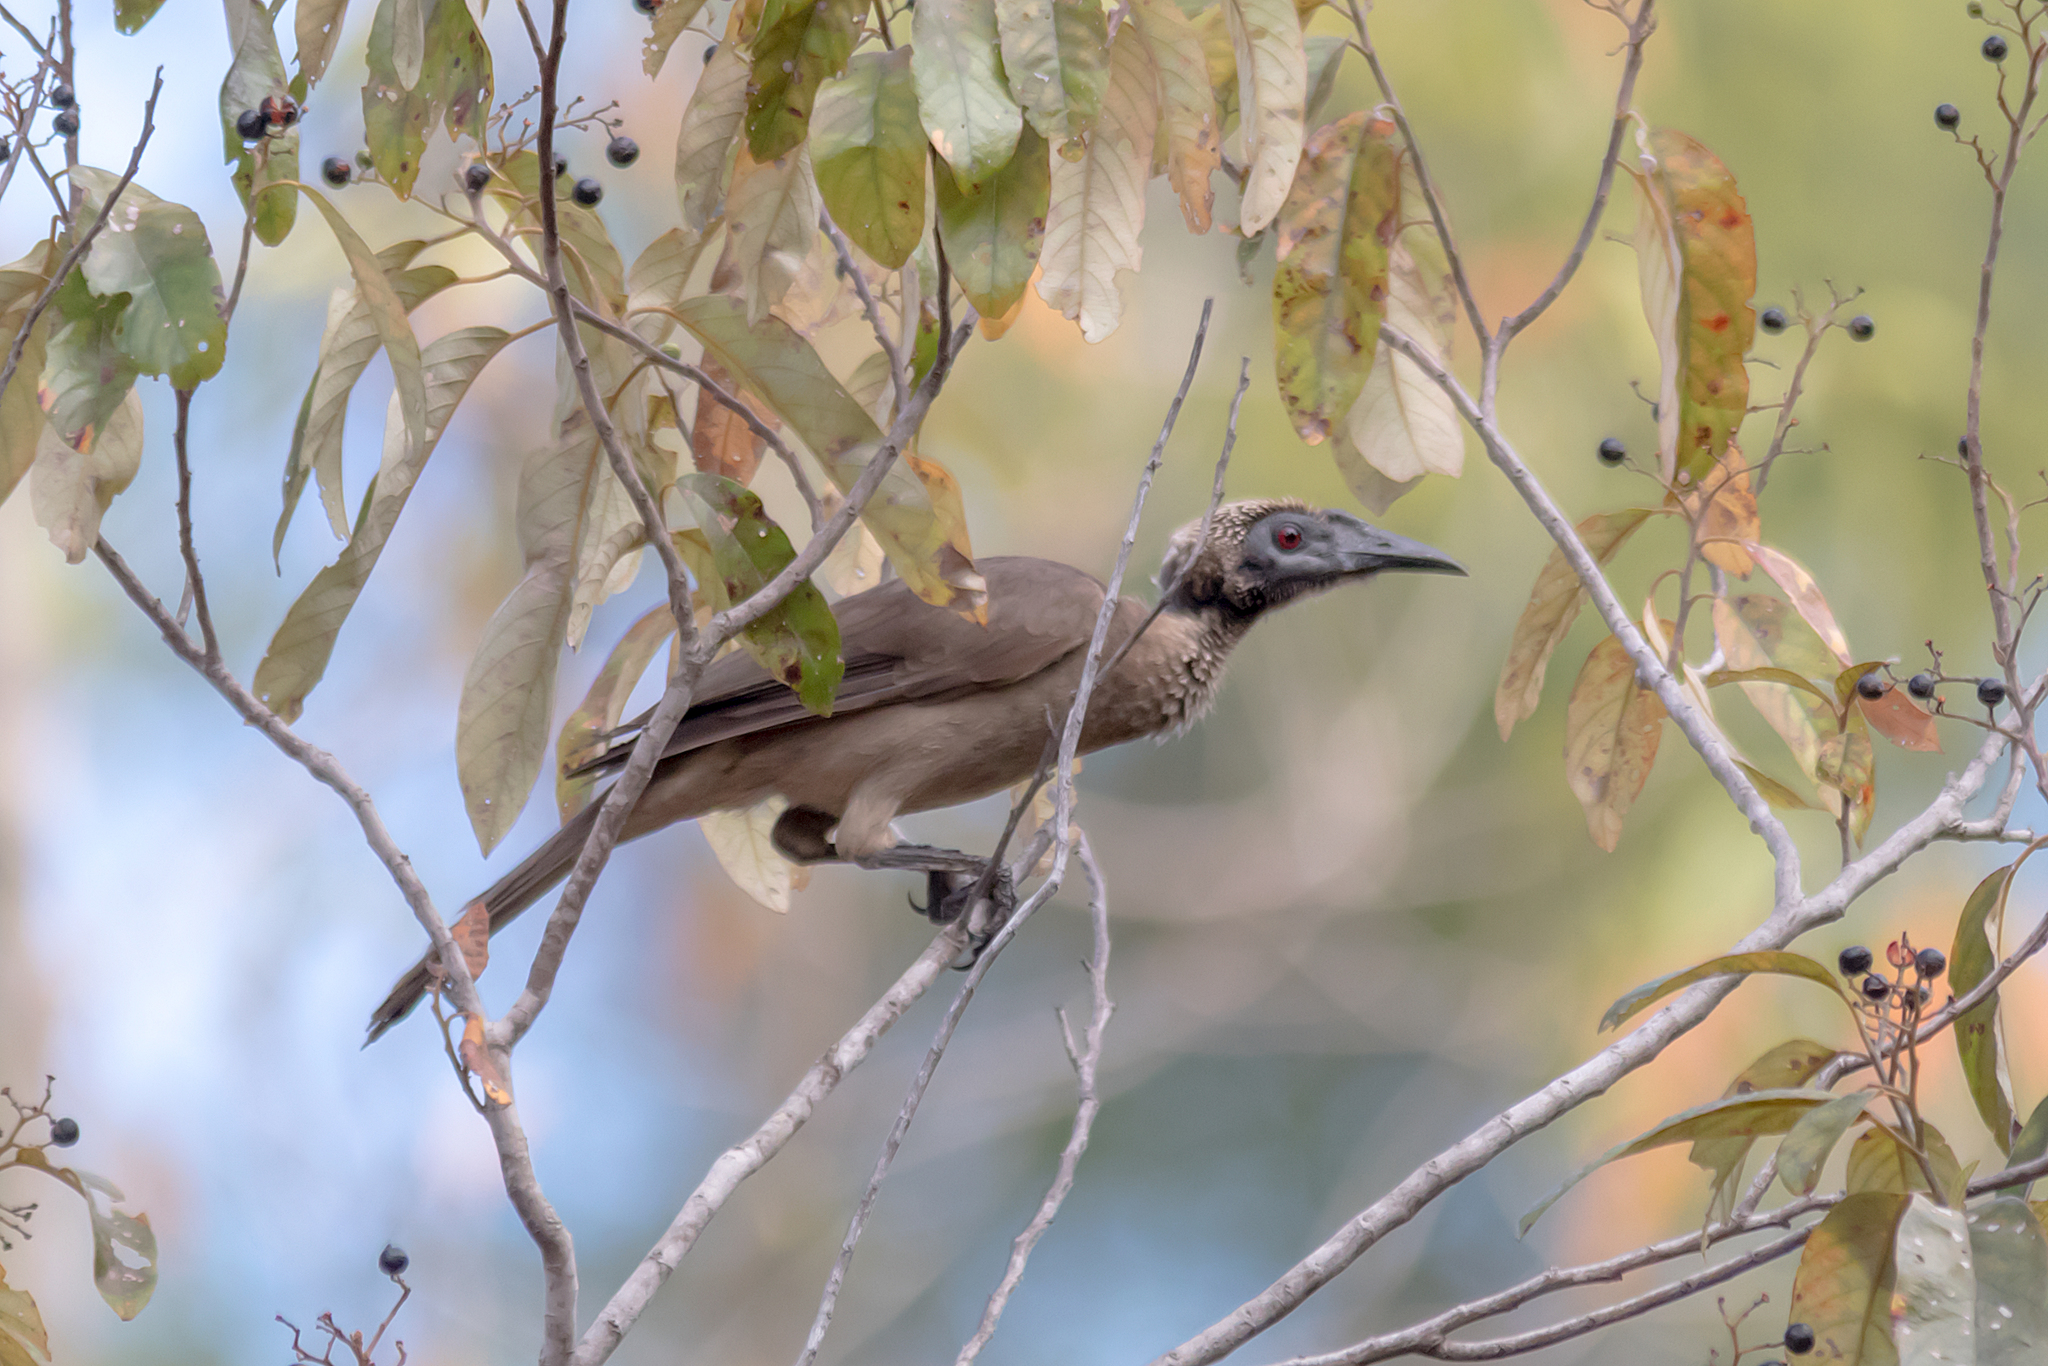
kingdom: Animalia
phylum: Chordata
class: Aves
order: Passeriformes
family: Meliphagidae
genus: Philemon
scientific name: Philemon buceroides
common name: Helmeted friarbird
